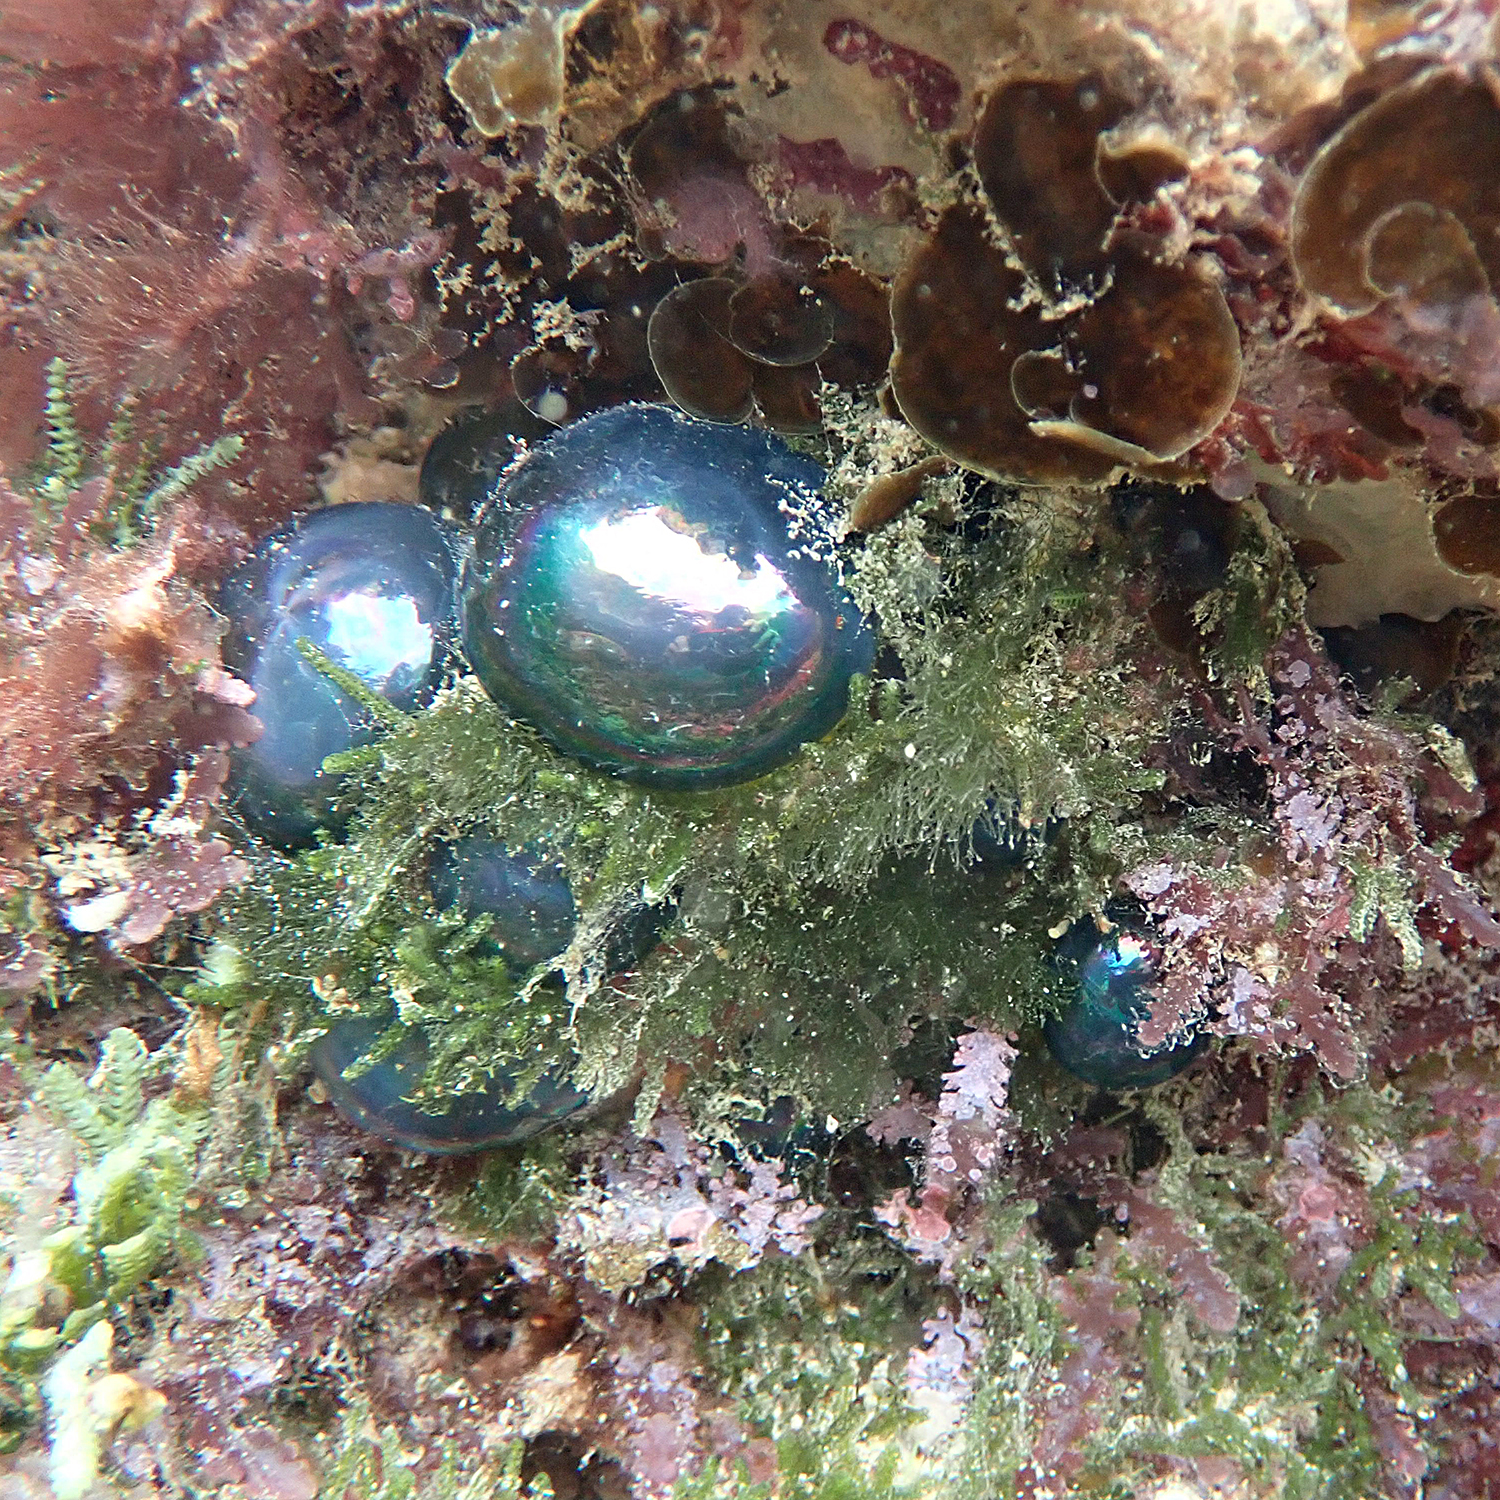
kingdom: Plantae
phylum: Chlorophyta
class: Ulvophyceae
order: Siphonocladales
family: Valoniaceae
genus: Valonia
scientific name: Valonia ventricosa
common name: Sea pearl
